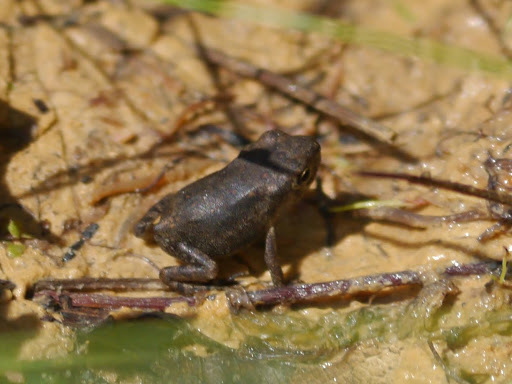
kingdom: Animalia
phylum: Chordata
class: Amphibia
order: Anura
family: Bufonidae
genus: Anaxyrus
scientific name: Anaxyrus
